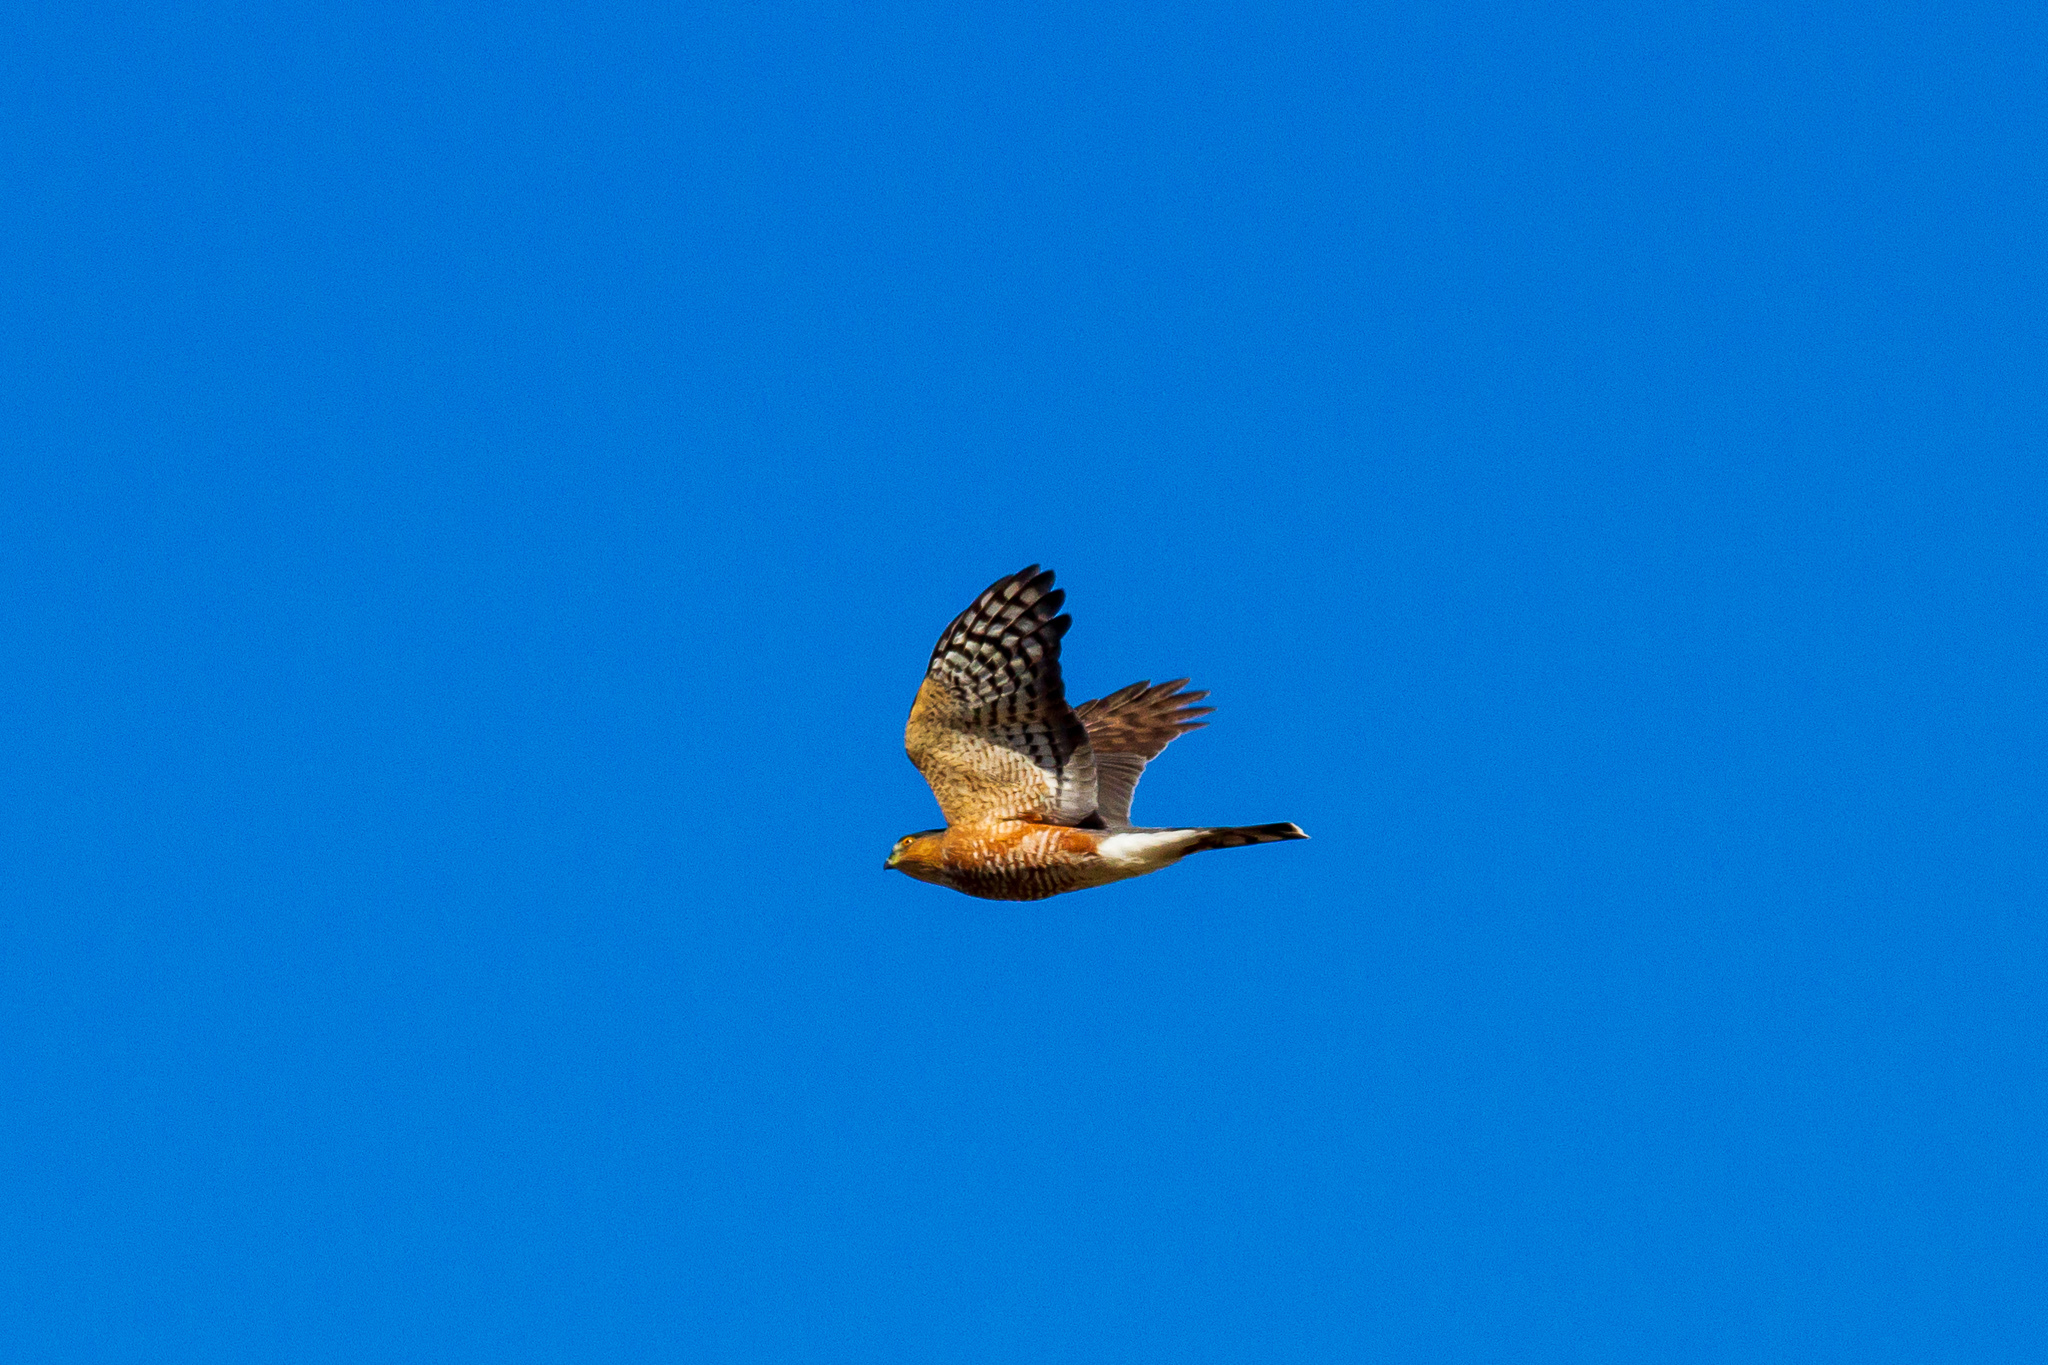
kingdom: Animalia
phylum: Chordata
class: Aves
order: Accipitriformes
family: Accipitridae
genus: Accipiter
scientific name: Accipiter striatus
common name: Sharp-shinned hawk
